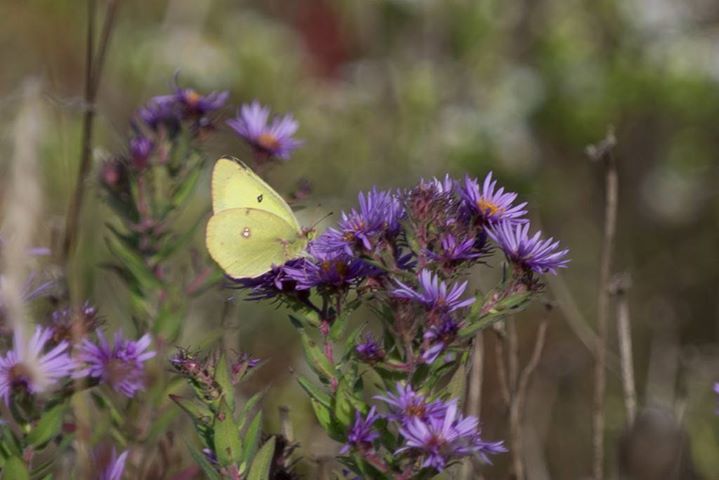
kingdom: Animalia
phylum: Arthropoda
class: Insecta
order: Lepidoptera
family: Pieridae
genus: Colias
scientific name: Colias philodice
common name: Clouded sulphur
